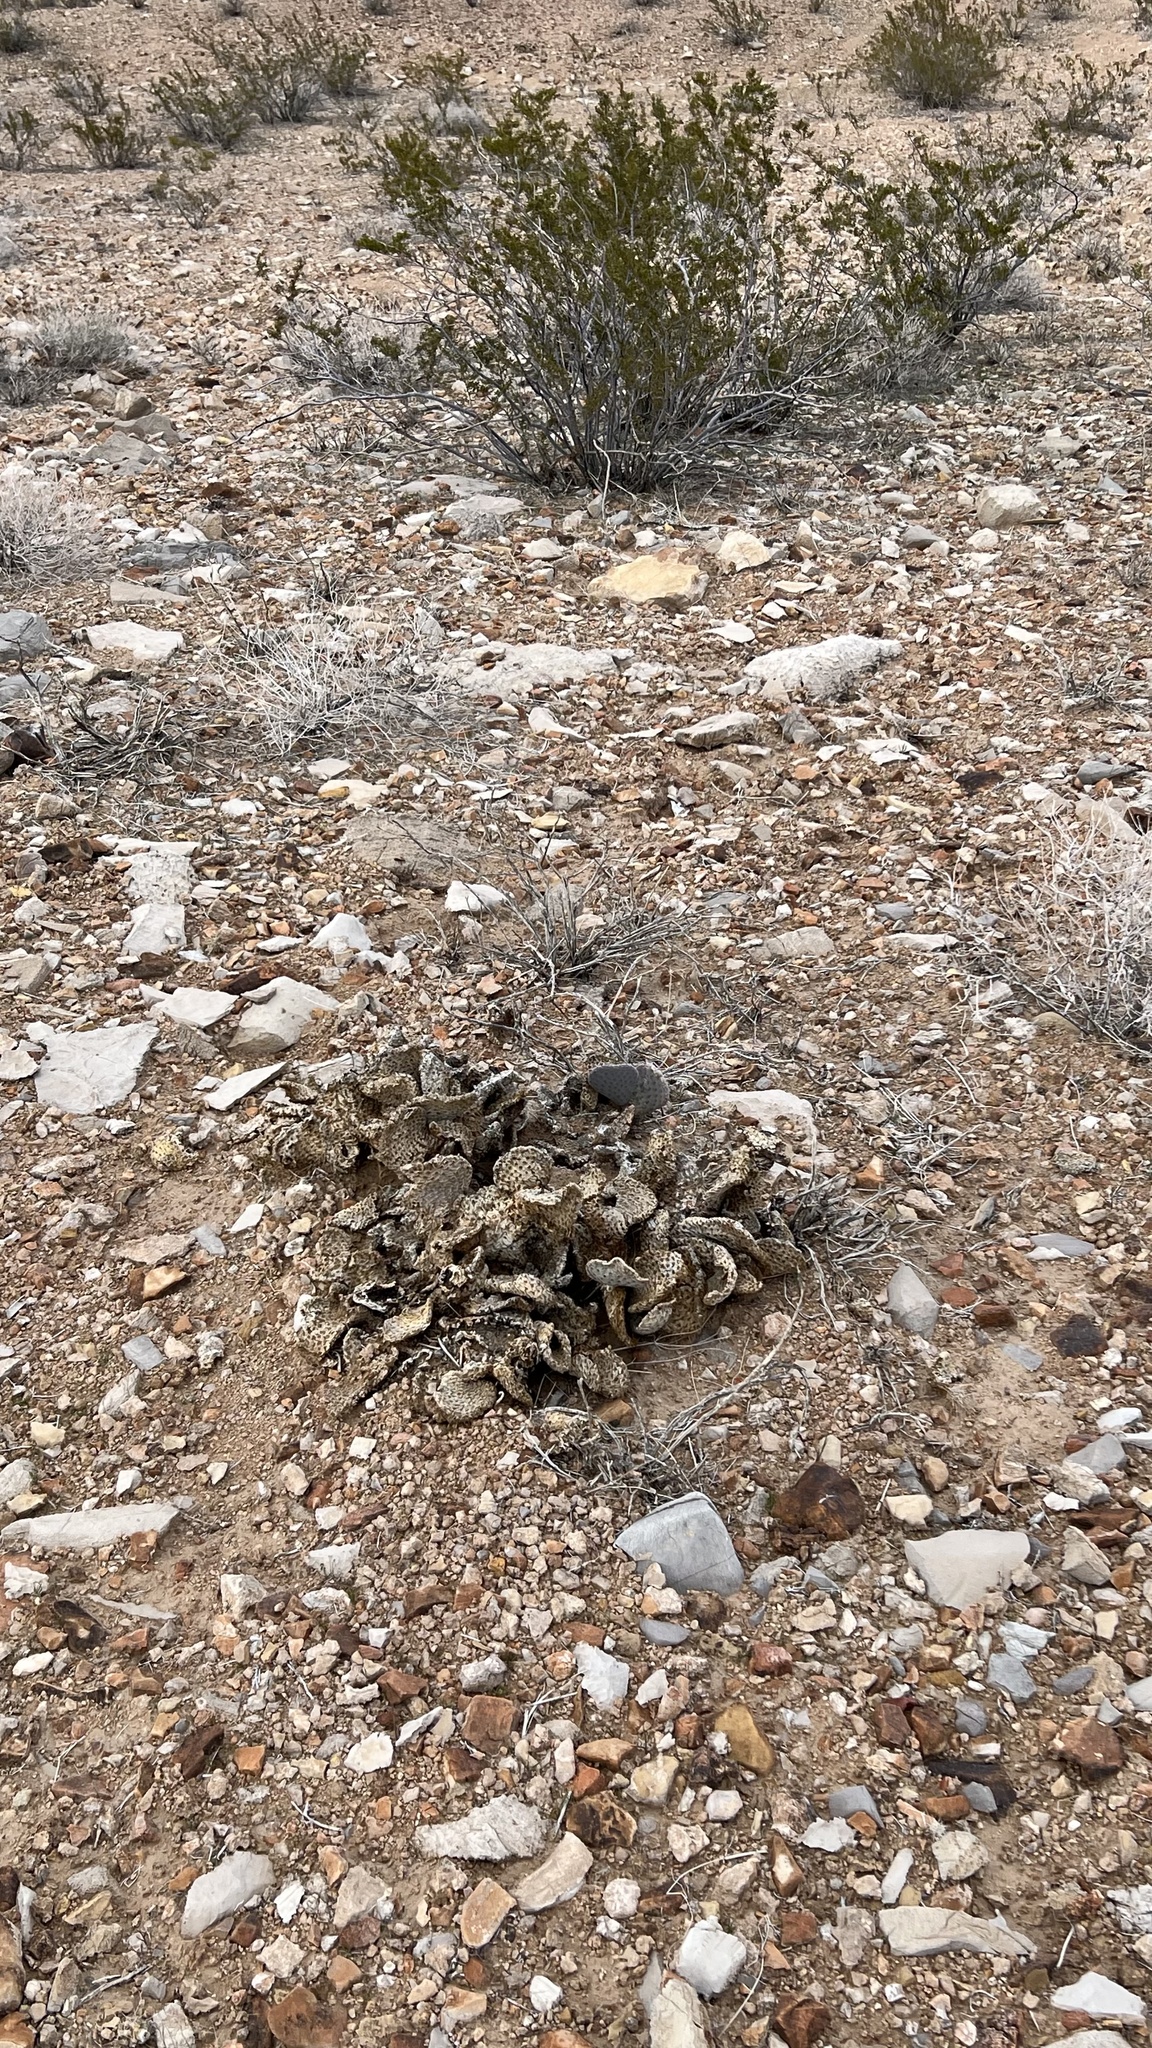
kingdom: Plantae
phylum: Tracheophyta
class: Magnoliopsida
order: Caryophyllales
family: Cactaceae
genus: Opuntia
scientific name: Opuntia basilaris
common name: Beavertail prickly-pear
